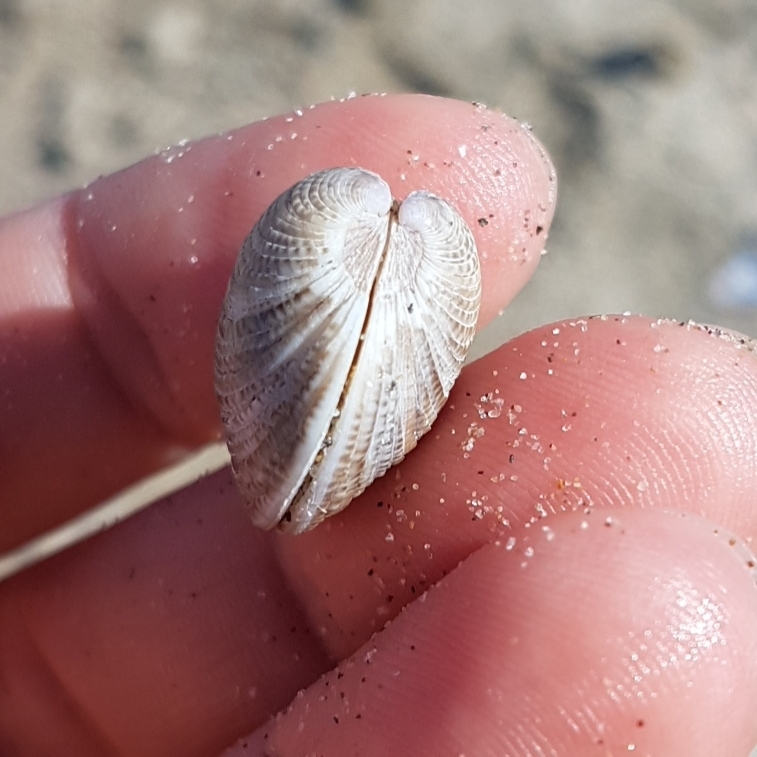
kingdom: Animalia
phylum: Mollusca
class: Bivalvia
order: Venerida
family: Veneridae
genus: Chamelea
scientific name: Chamelea gallina
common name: Chicken venus
